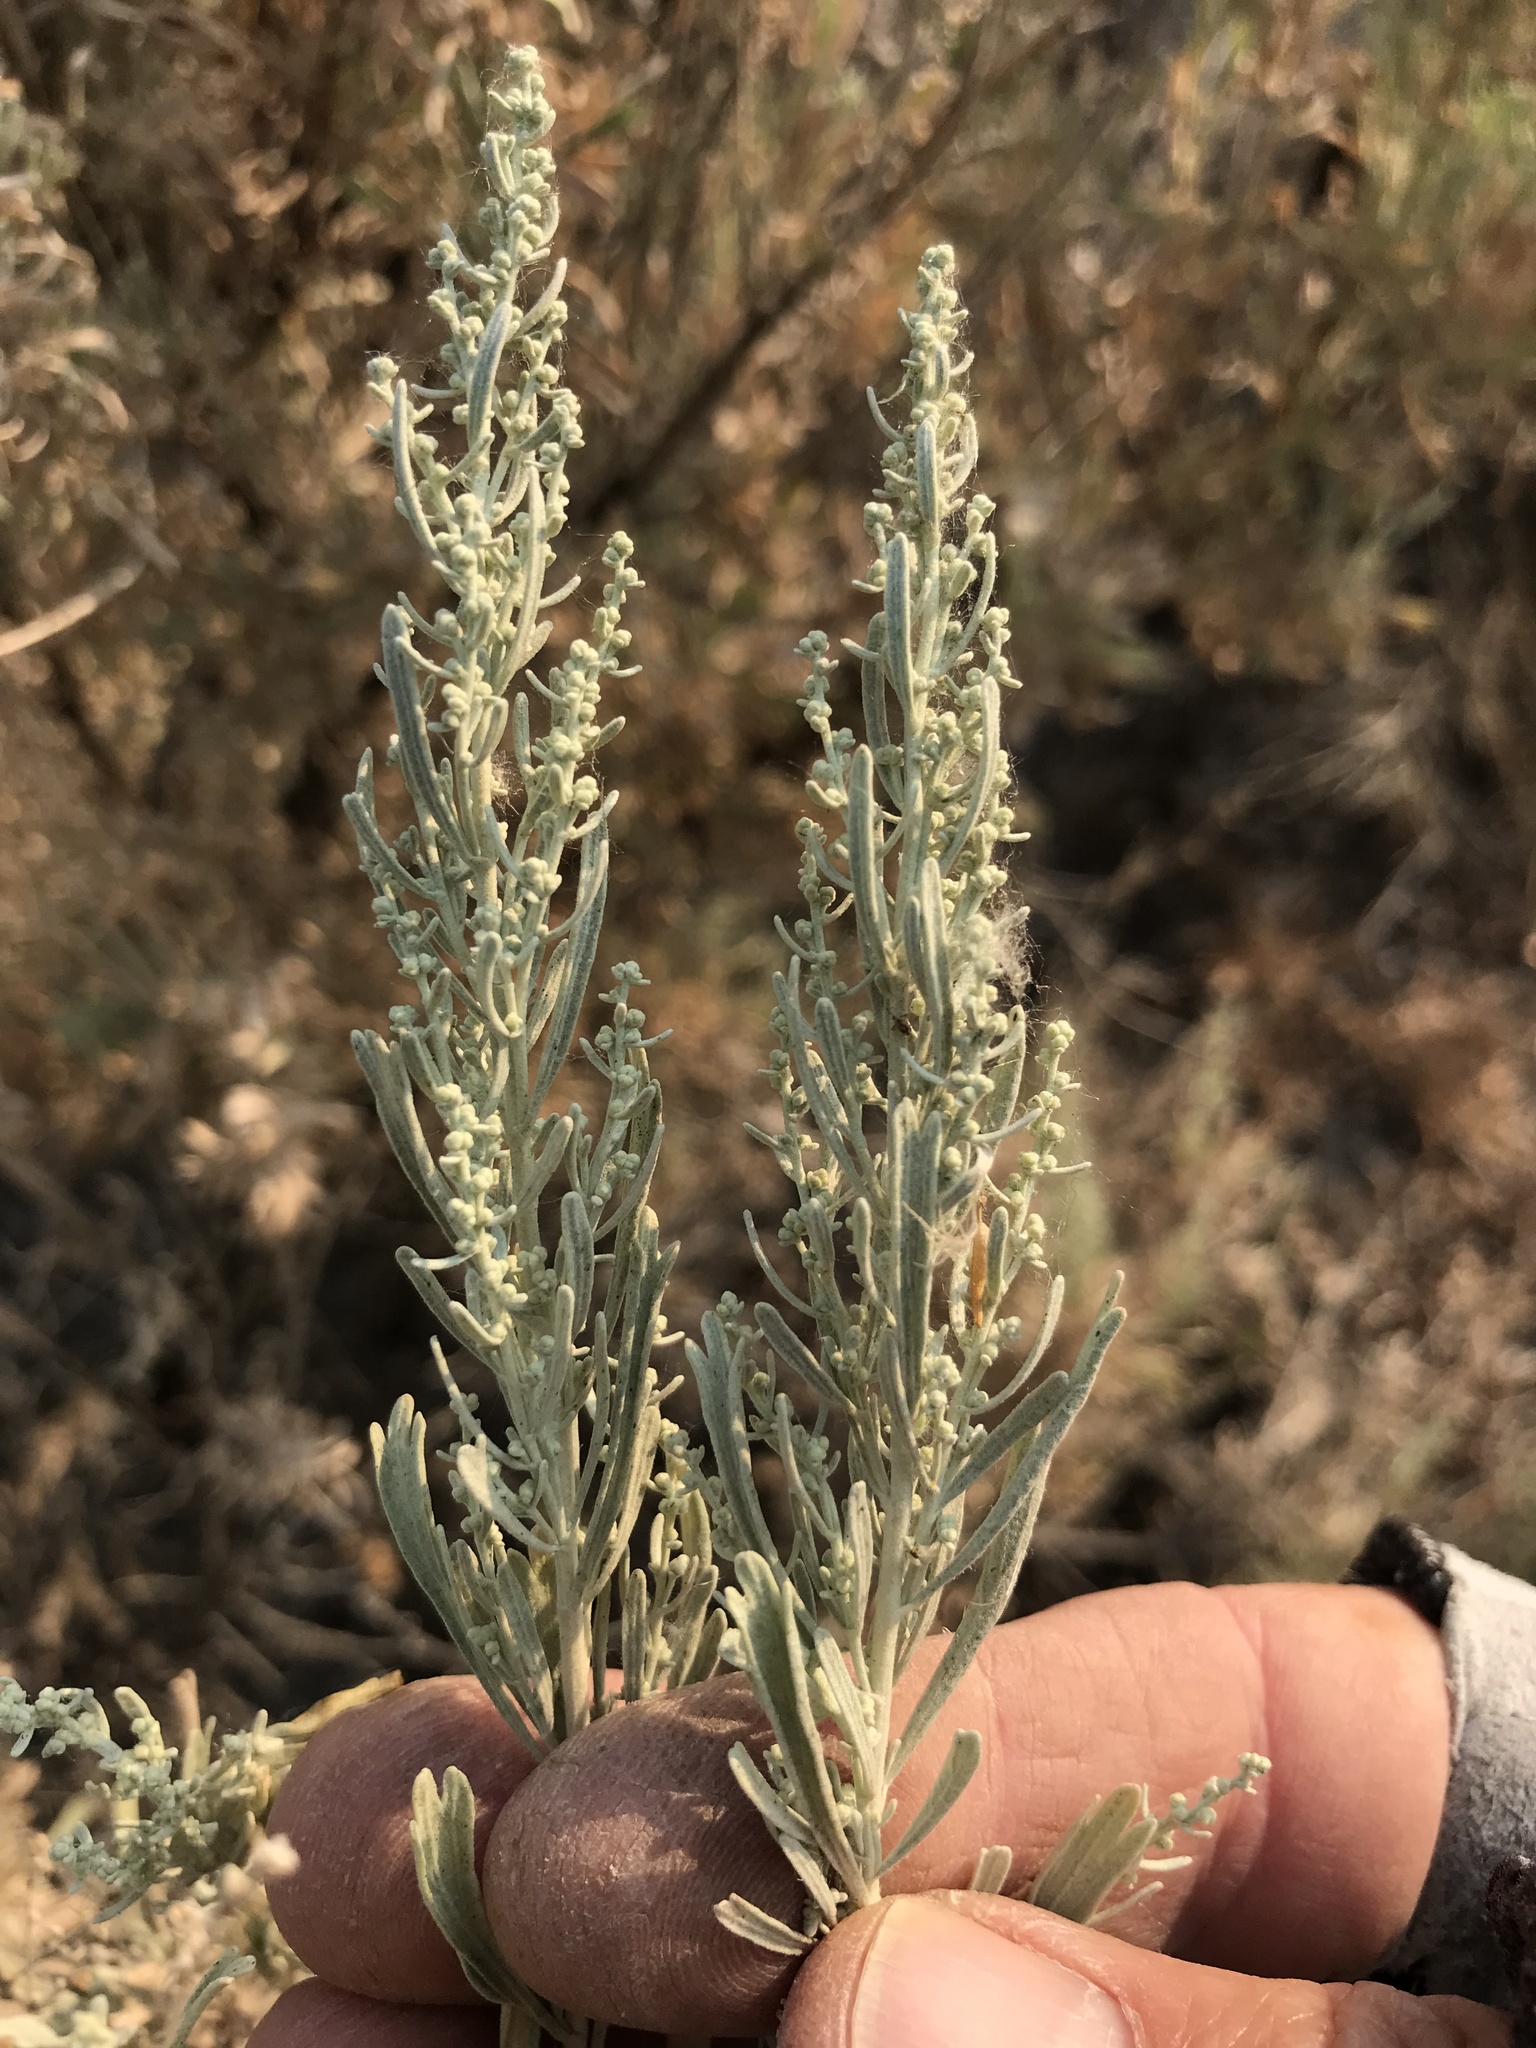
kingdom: Plantae
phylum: Tracheophyta
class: Magnoliopsida
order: Asterales
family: Asteraceae
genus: Artemisia
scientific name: Artemisia tridentata
